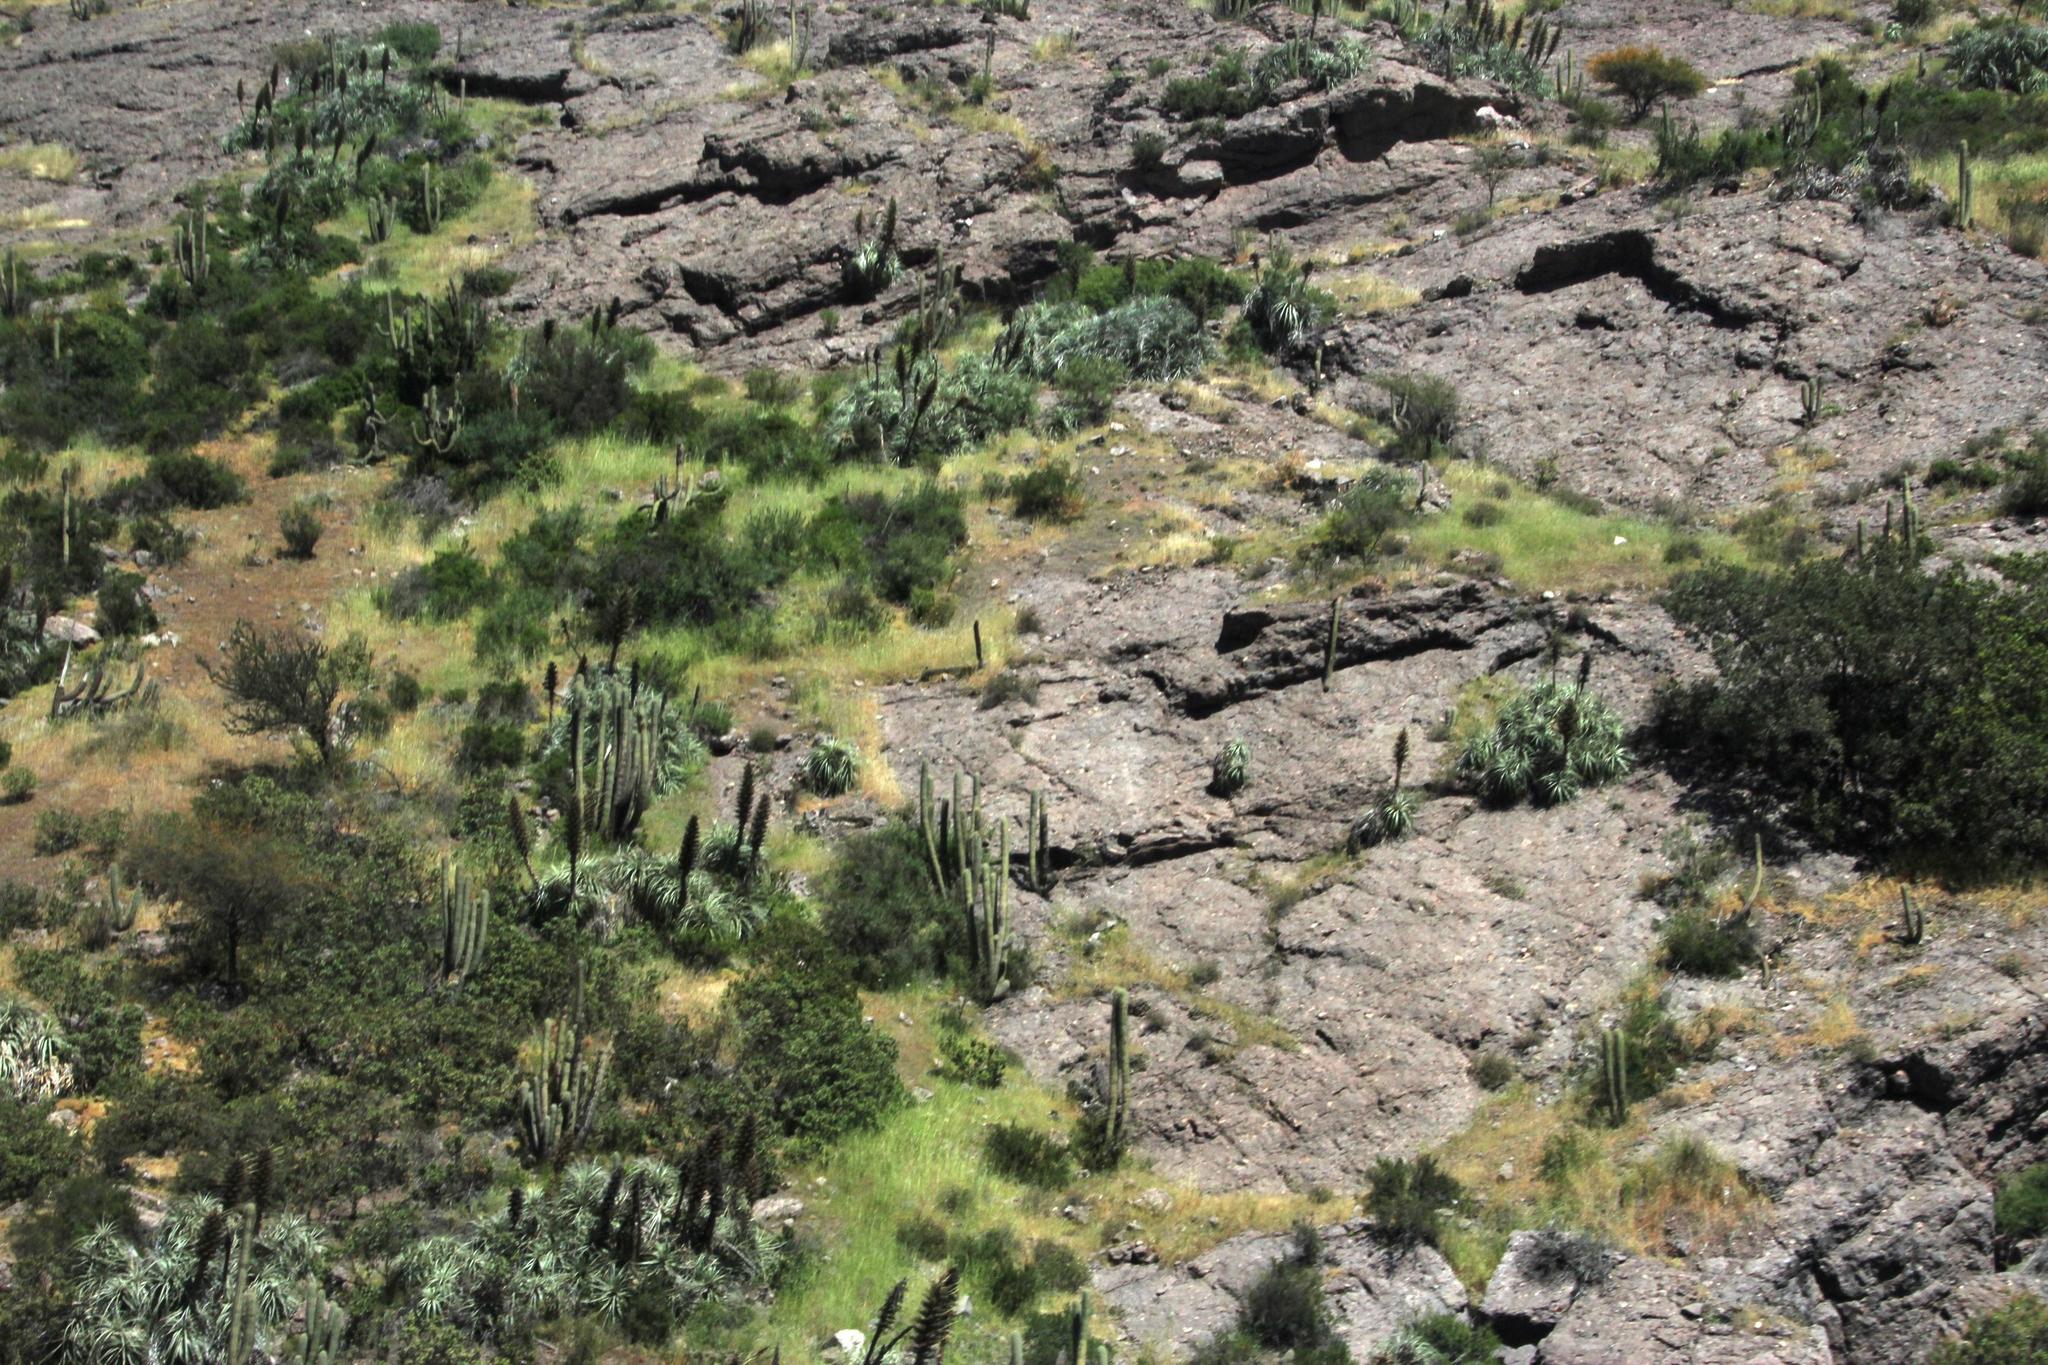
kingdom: Plantae
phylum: Tracheophyta
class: Magnoliopsida
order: Caryophyllales
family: Cactaceae
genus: Leucostele
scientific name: Leucostele chiloensis
